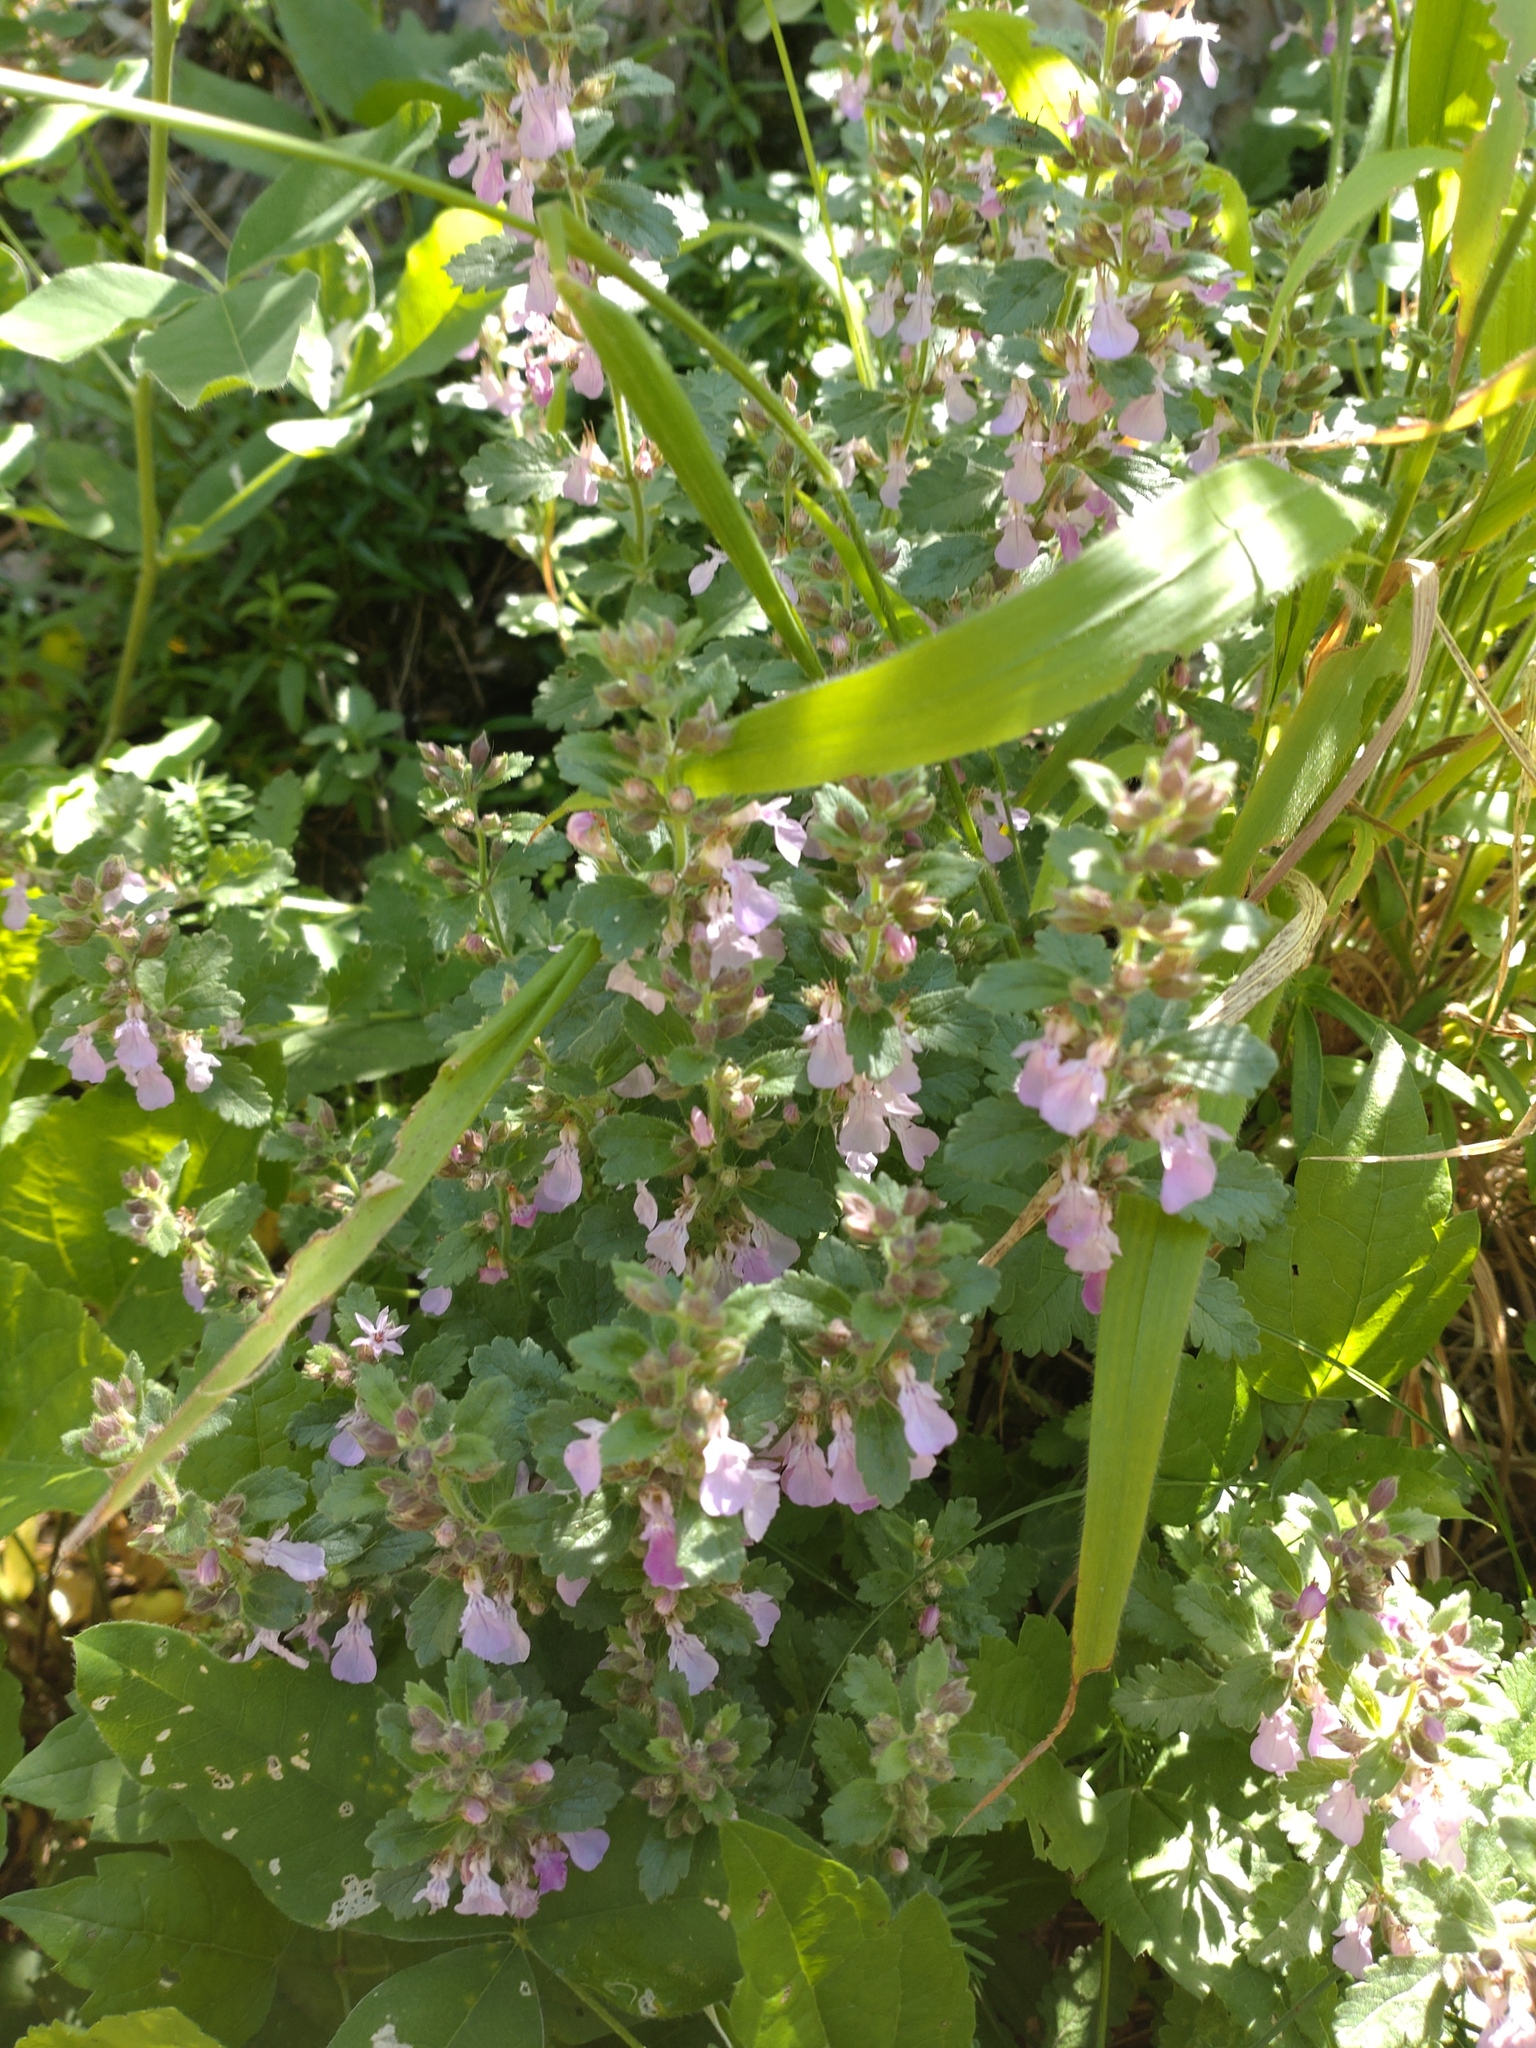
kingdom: Plantae
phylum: Tracheophyta
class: Magnoliopsida
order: Lamiales
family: Lamiaceae
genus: Teucrium
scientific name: Teucrium chamaedrys
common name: Wall germander
